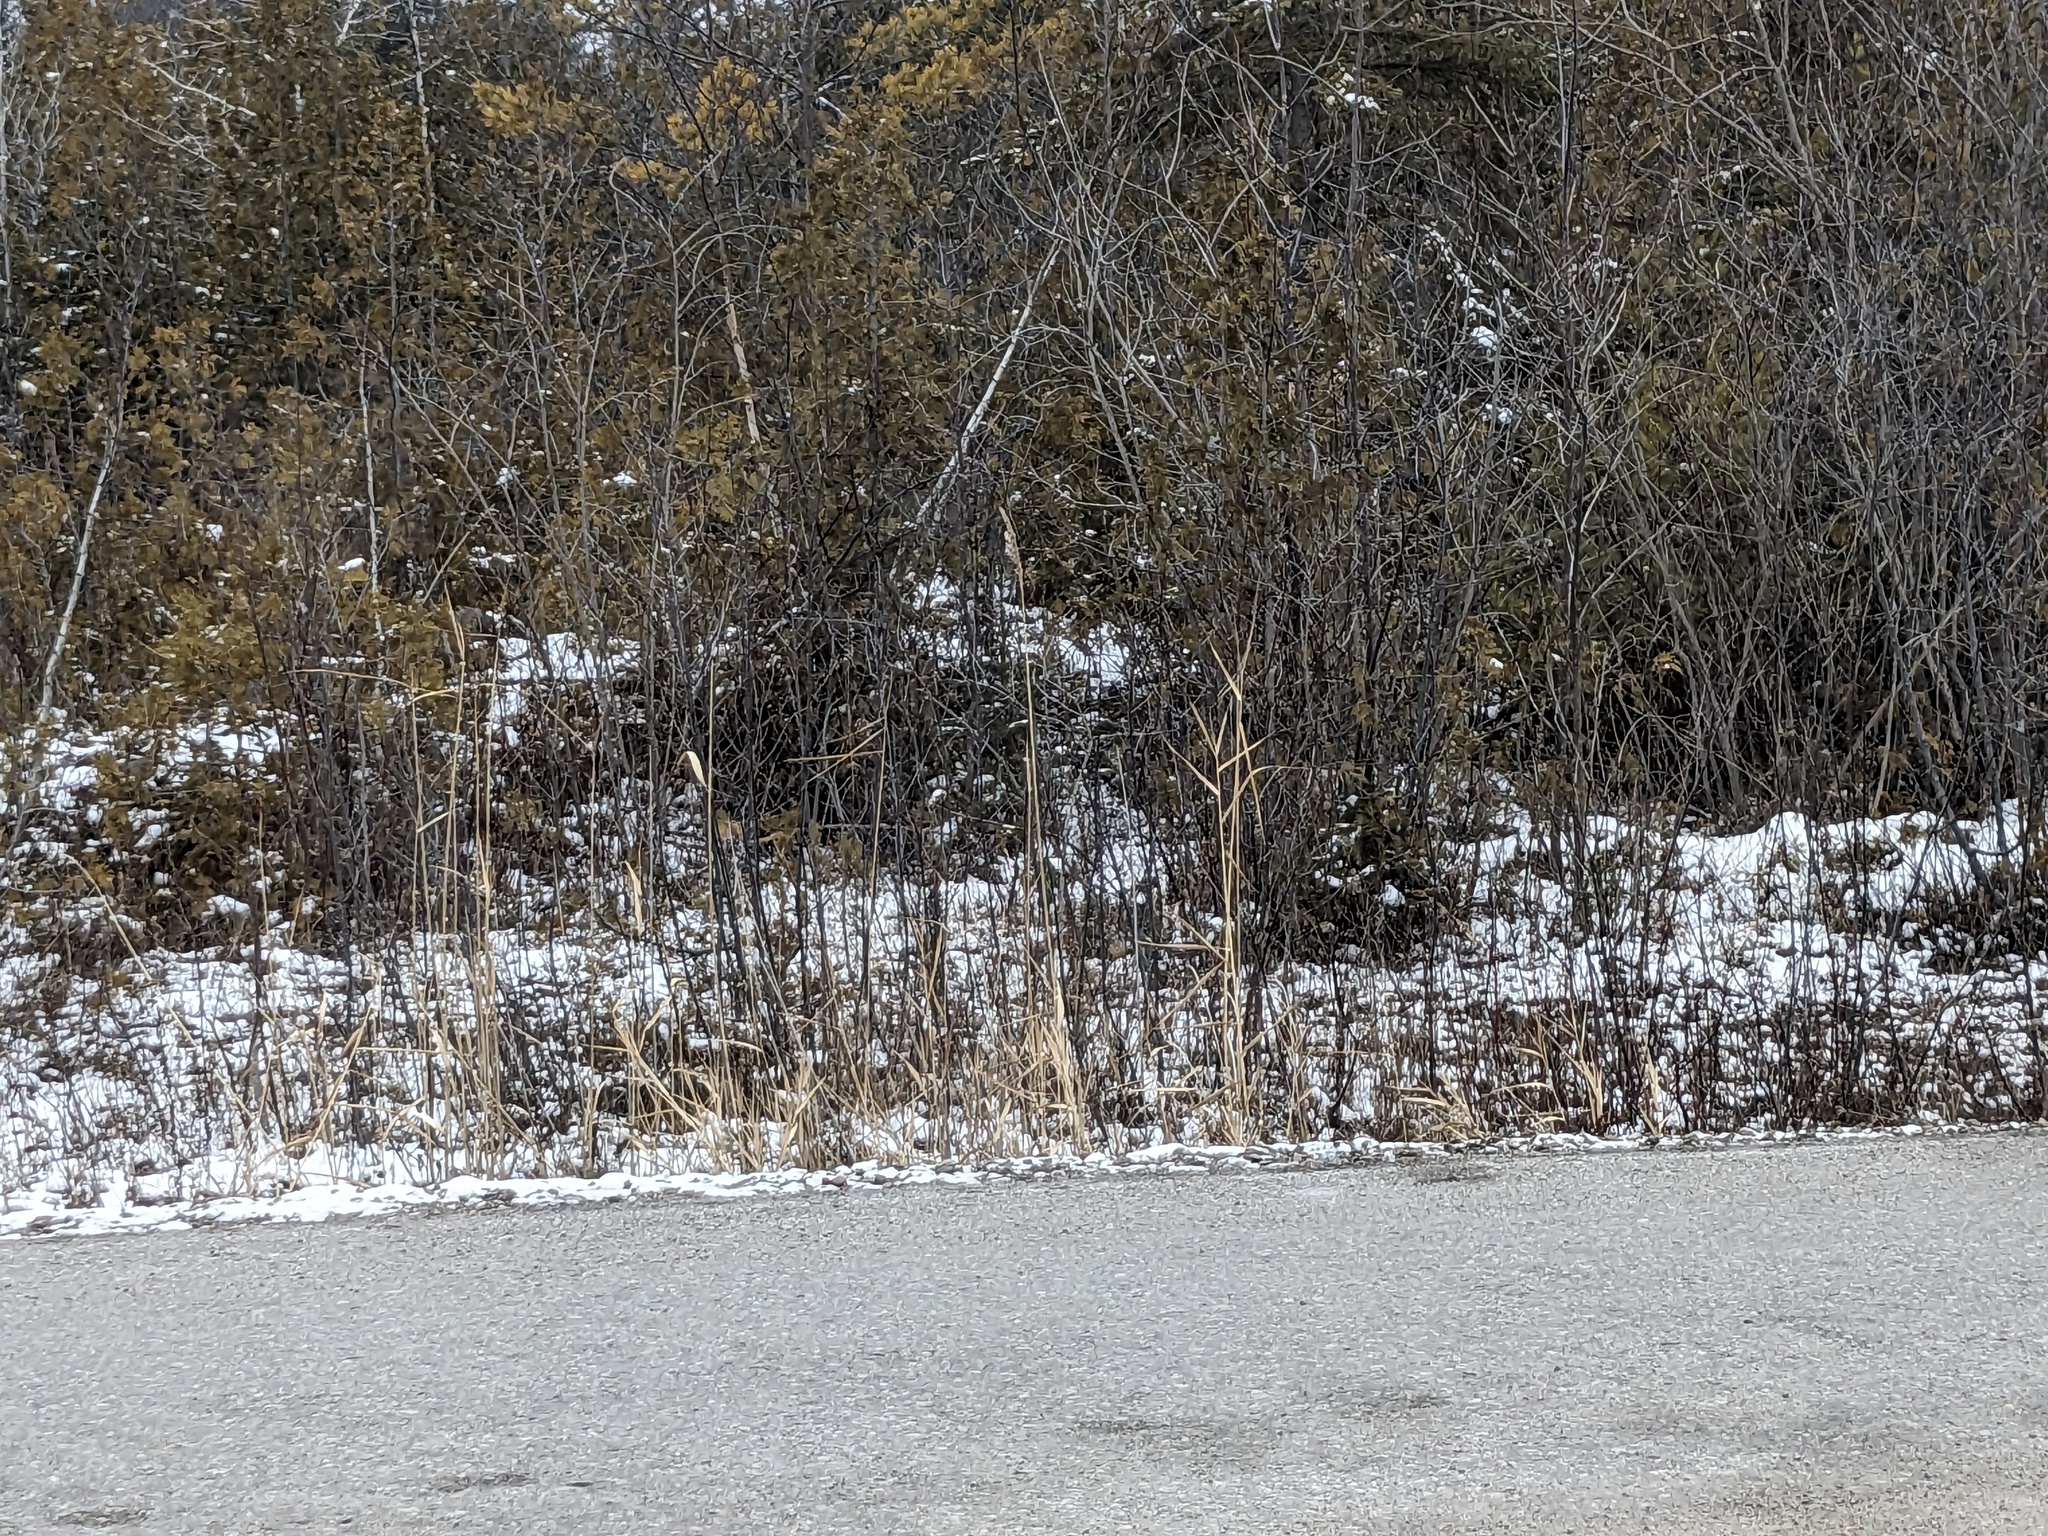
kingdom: Plantae
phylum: Tracheophyta
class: Liliopsida
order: Poales
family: Poaceae
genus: Phragmites
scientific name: Phragmites australis
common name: Common reed
